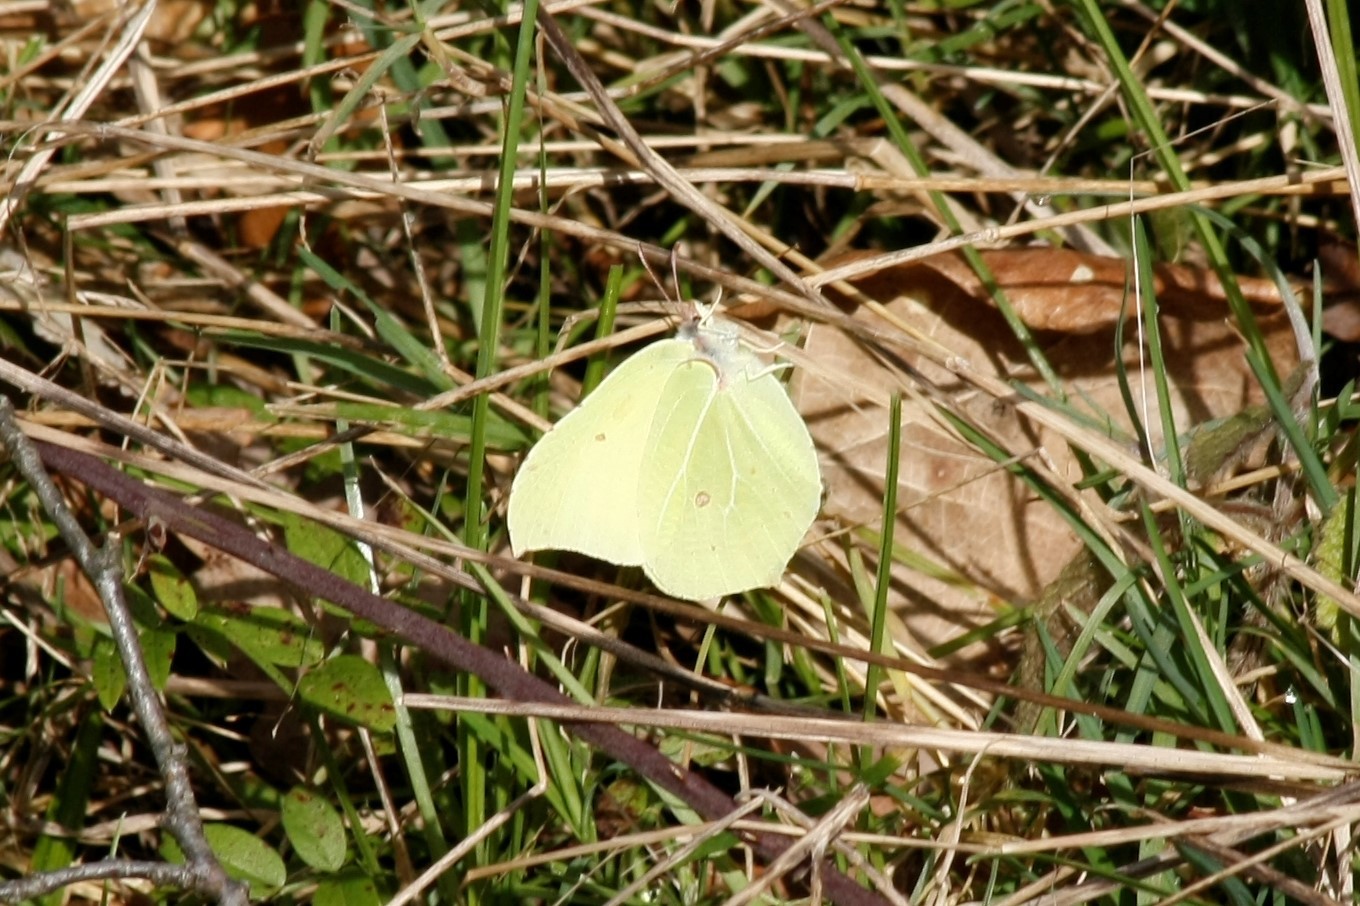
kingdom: Animalia
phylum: Arthropoda
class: Insecta
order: Lepidoptera
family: Pieridae
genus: Gonepteryx
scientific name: Gonepteryx rhamni
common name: Brimstone
